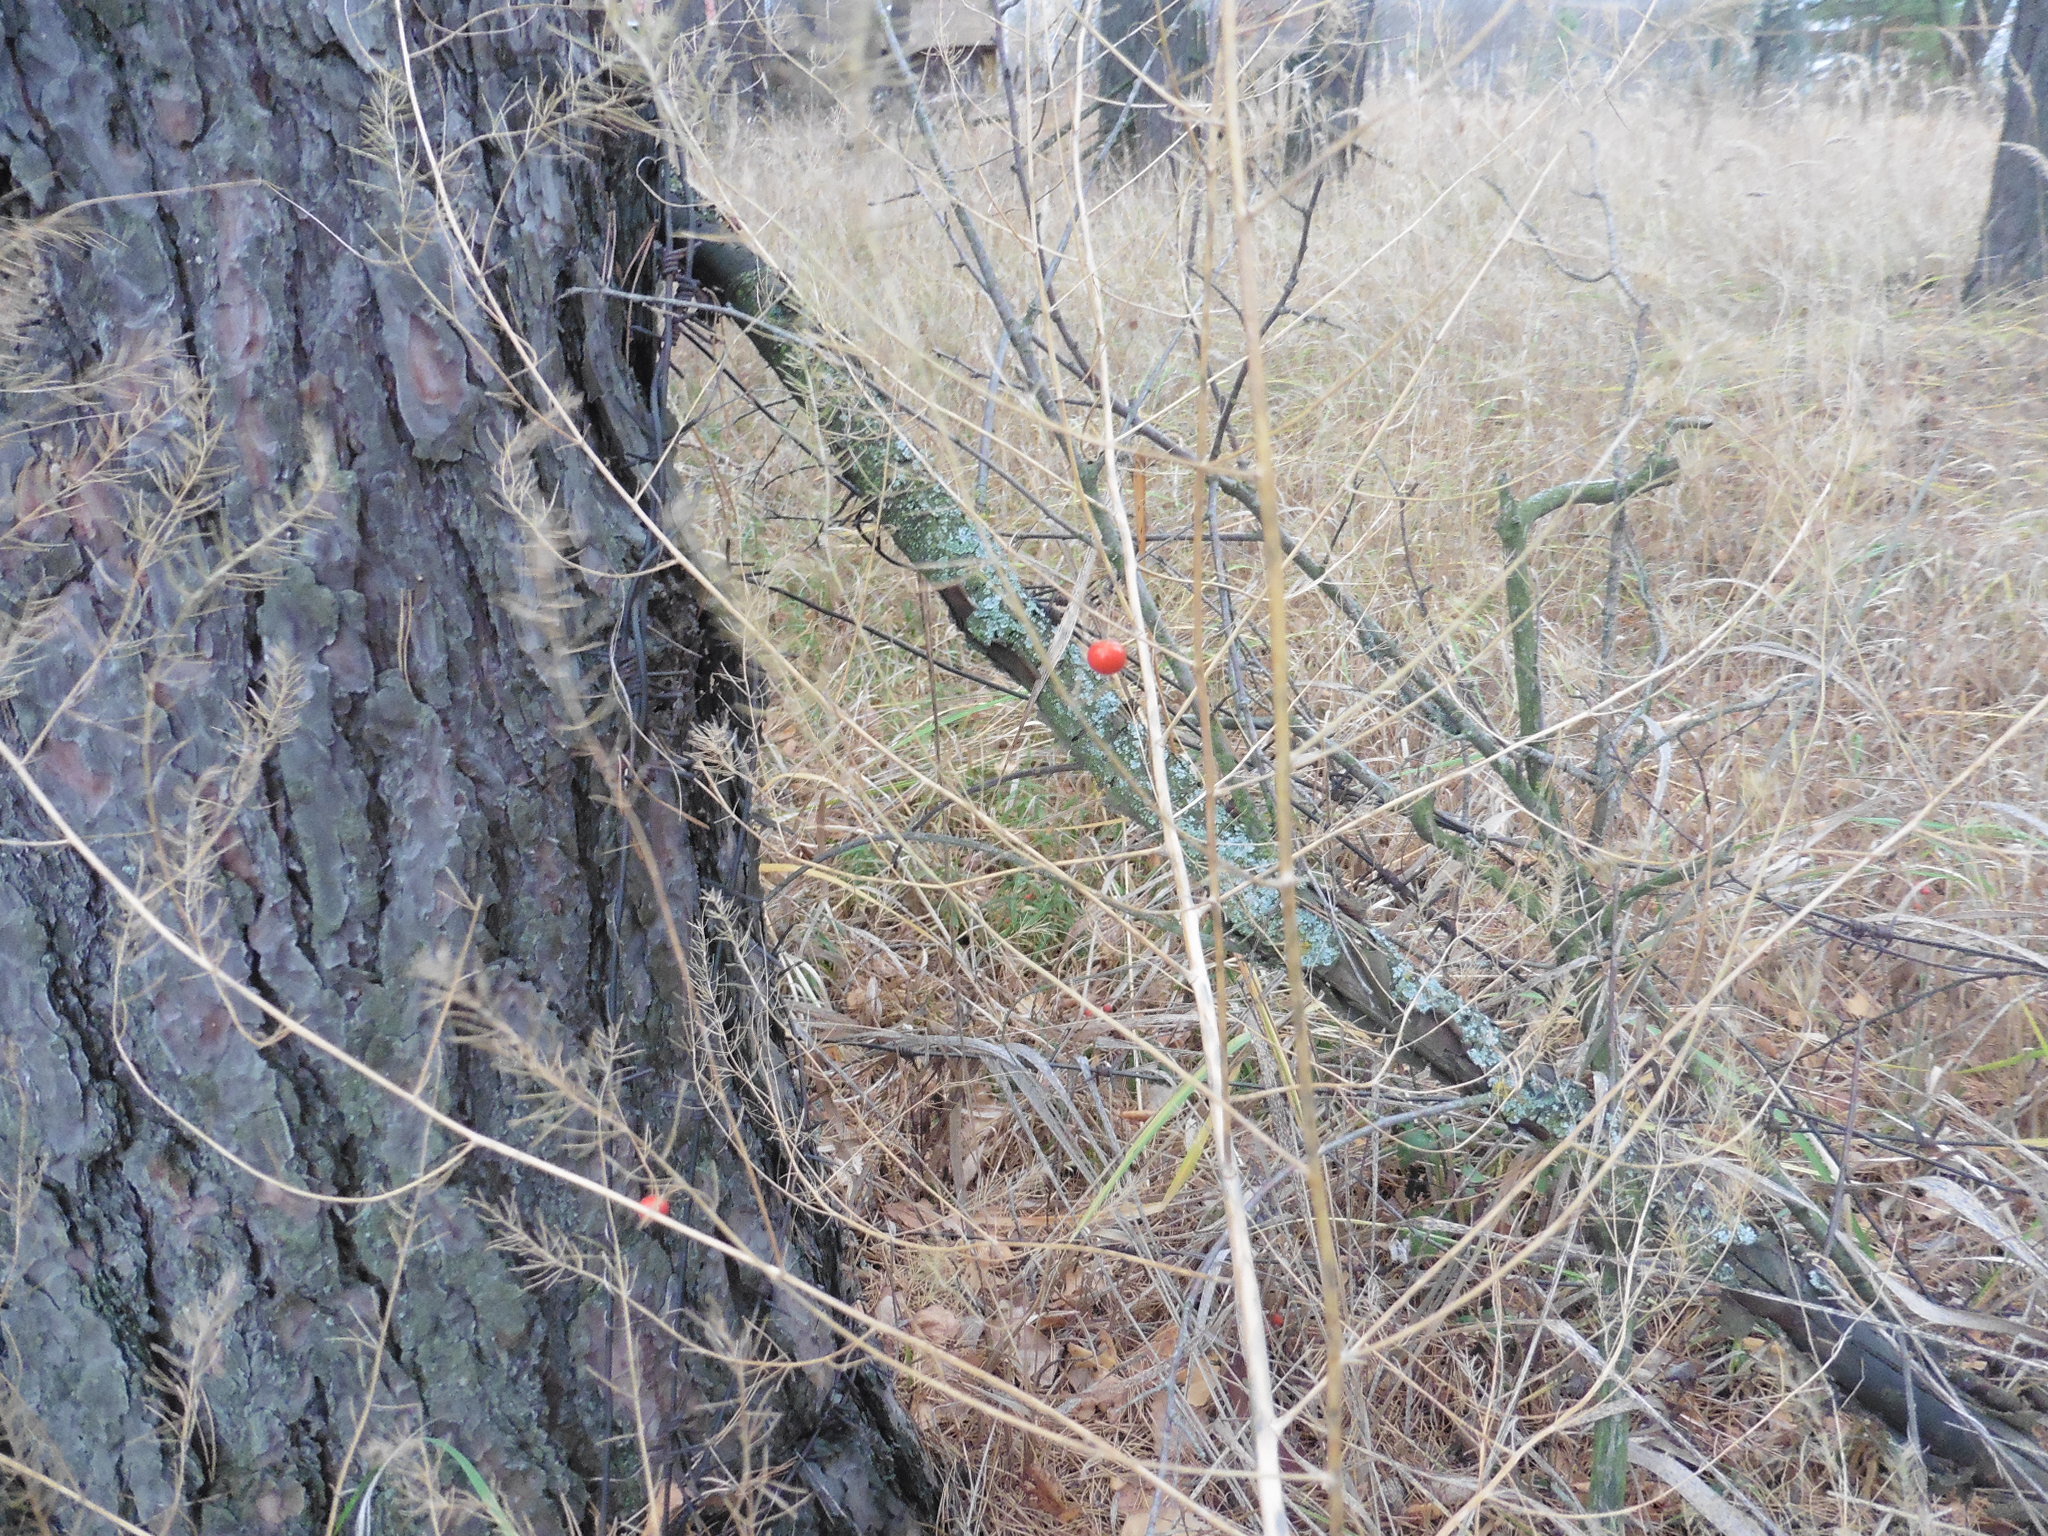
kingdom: Plantae
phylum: Tracheophyta
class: Liliopsida
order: Asparagales
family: Asparagaceae
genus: Asparagus
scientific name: Asparagus officinalis
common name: Garden asparagus
